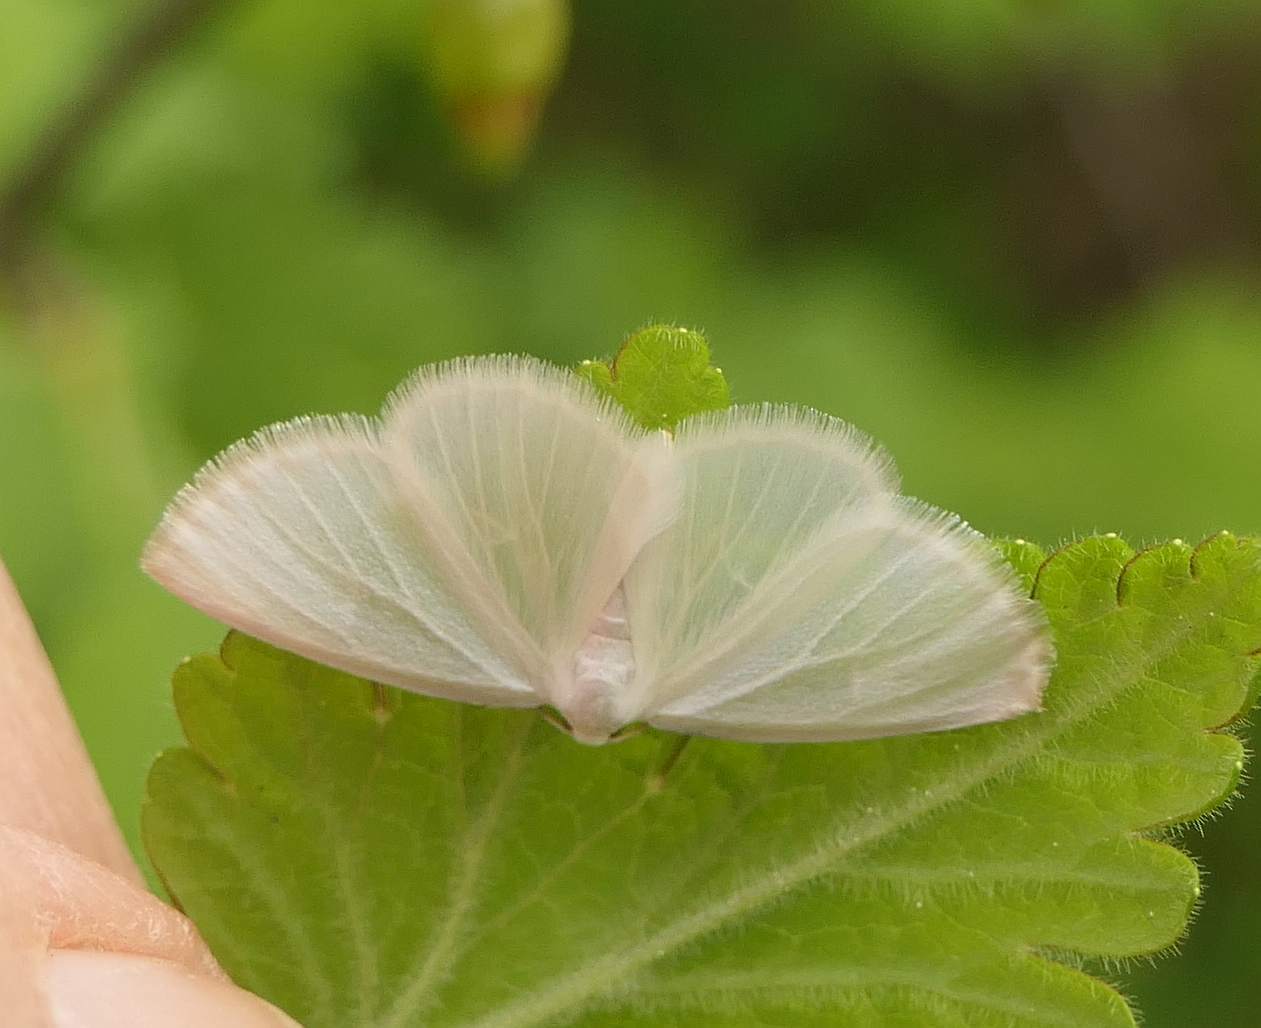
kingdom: Animalia
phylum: Arthropoda
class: Insecta
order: Lepidoptera
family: Geometridae
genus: Lomographa
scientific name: Lomographa vestaliata
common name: White spring moth
